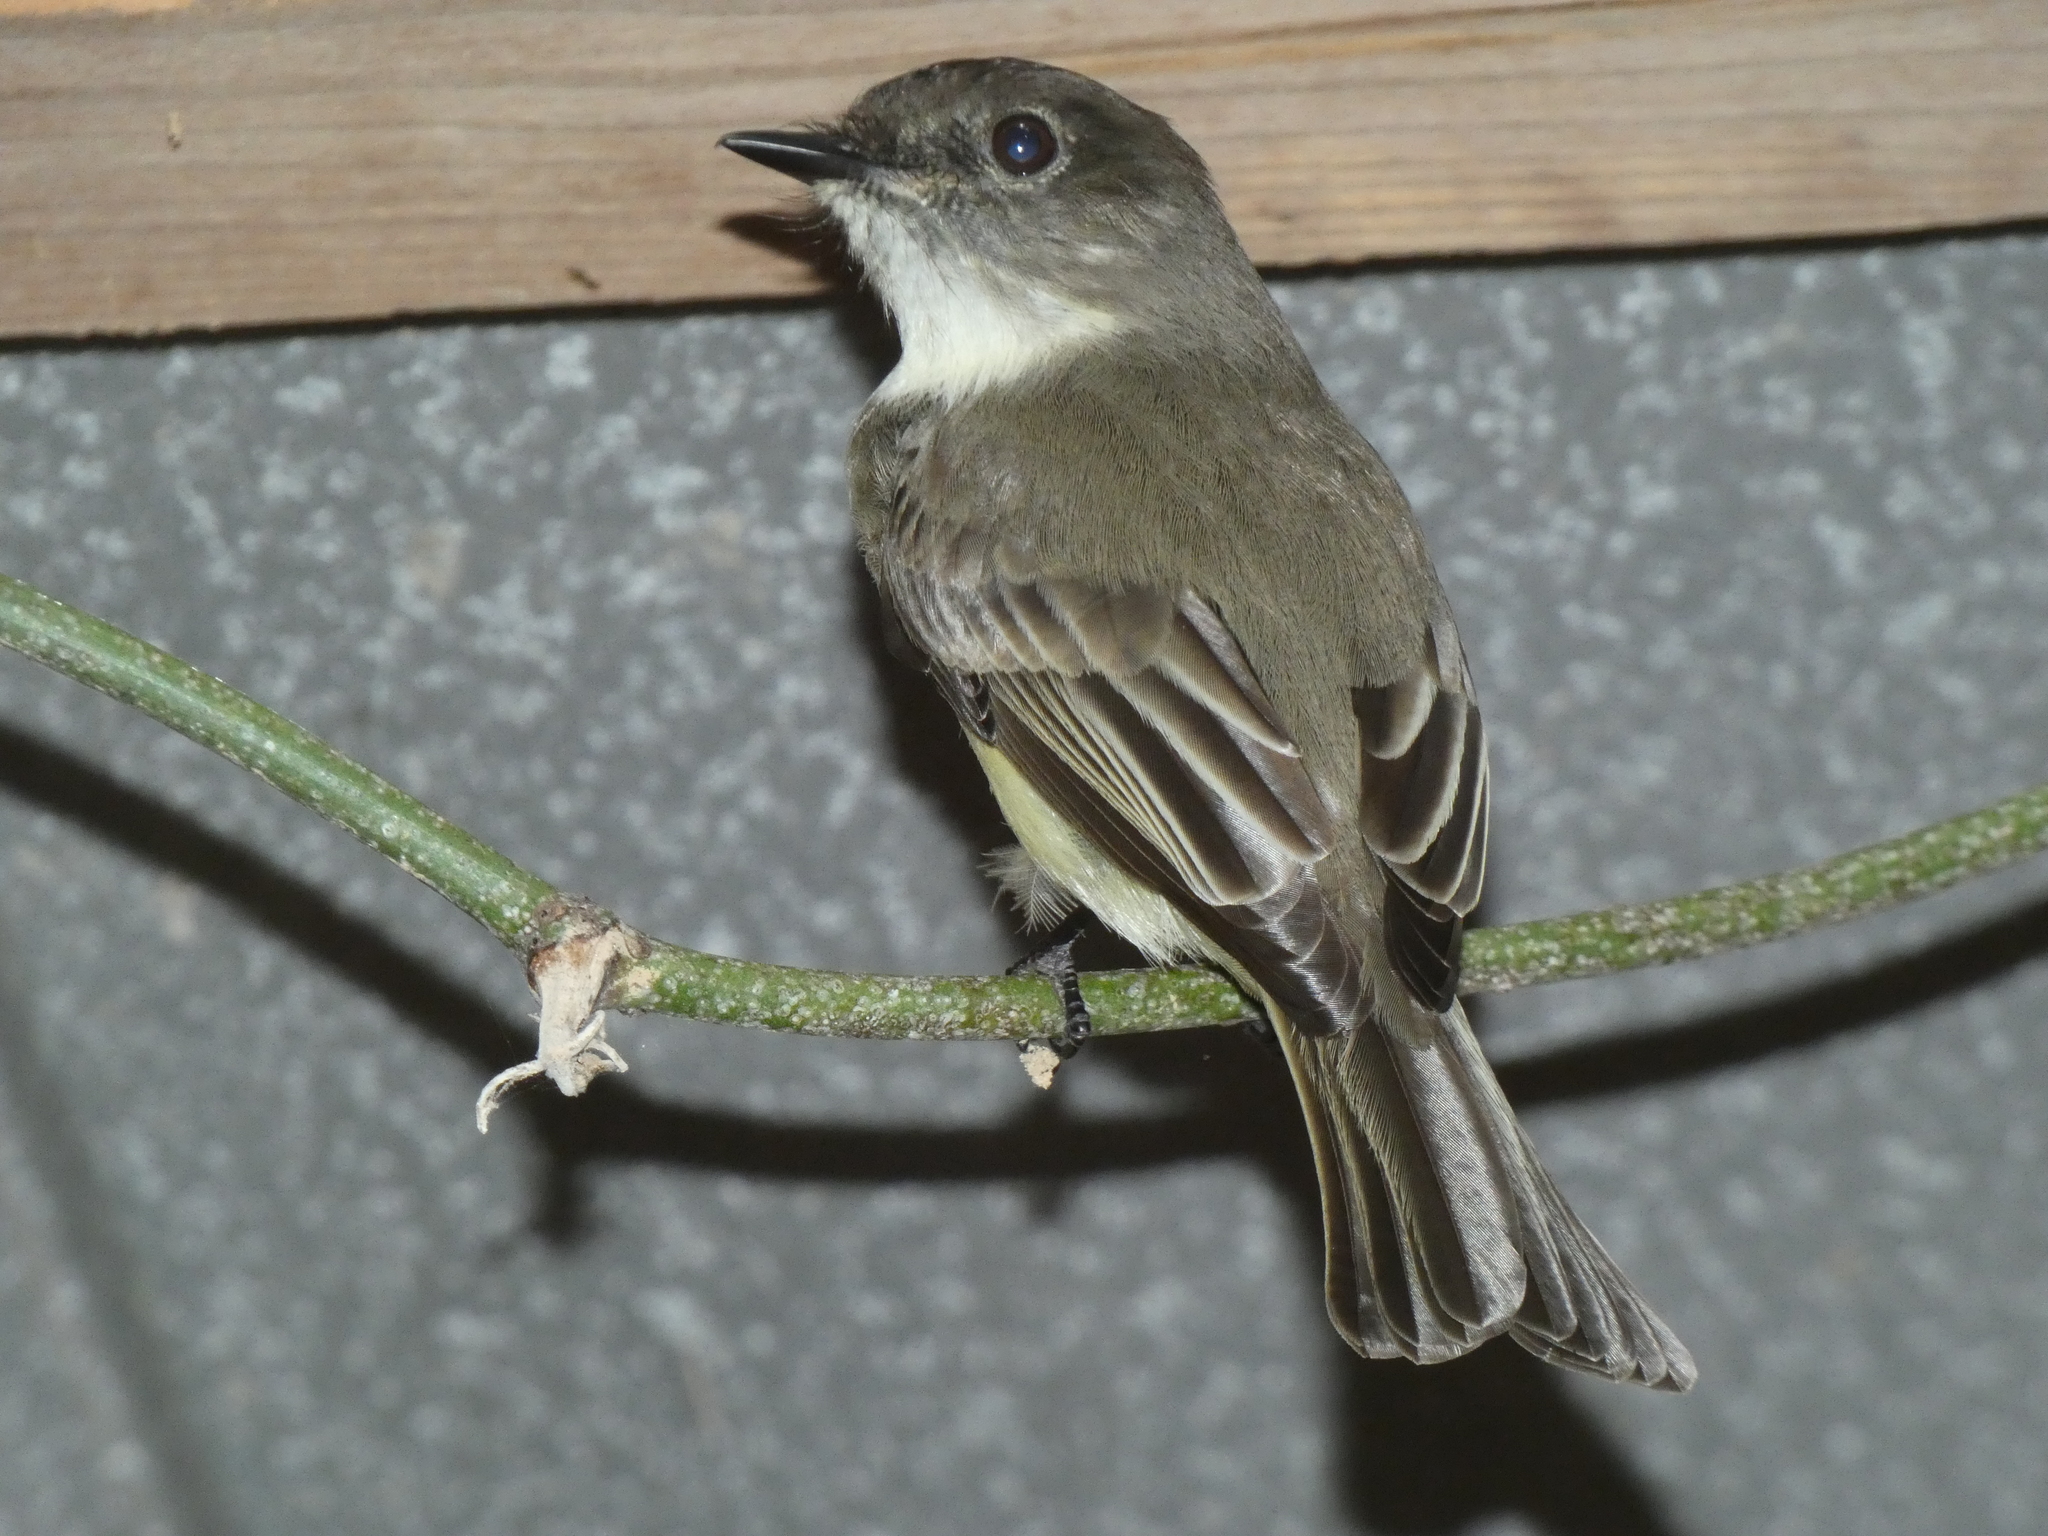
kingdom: Animalia
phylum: Chordata
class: Aves
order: Passeriformes
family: Tyrannidae
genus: Sayornis
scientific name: Sayornis phoebe
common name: Eastern phoebe
